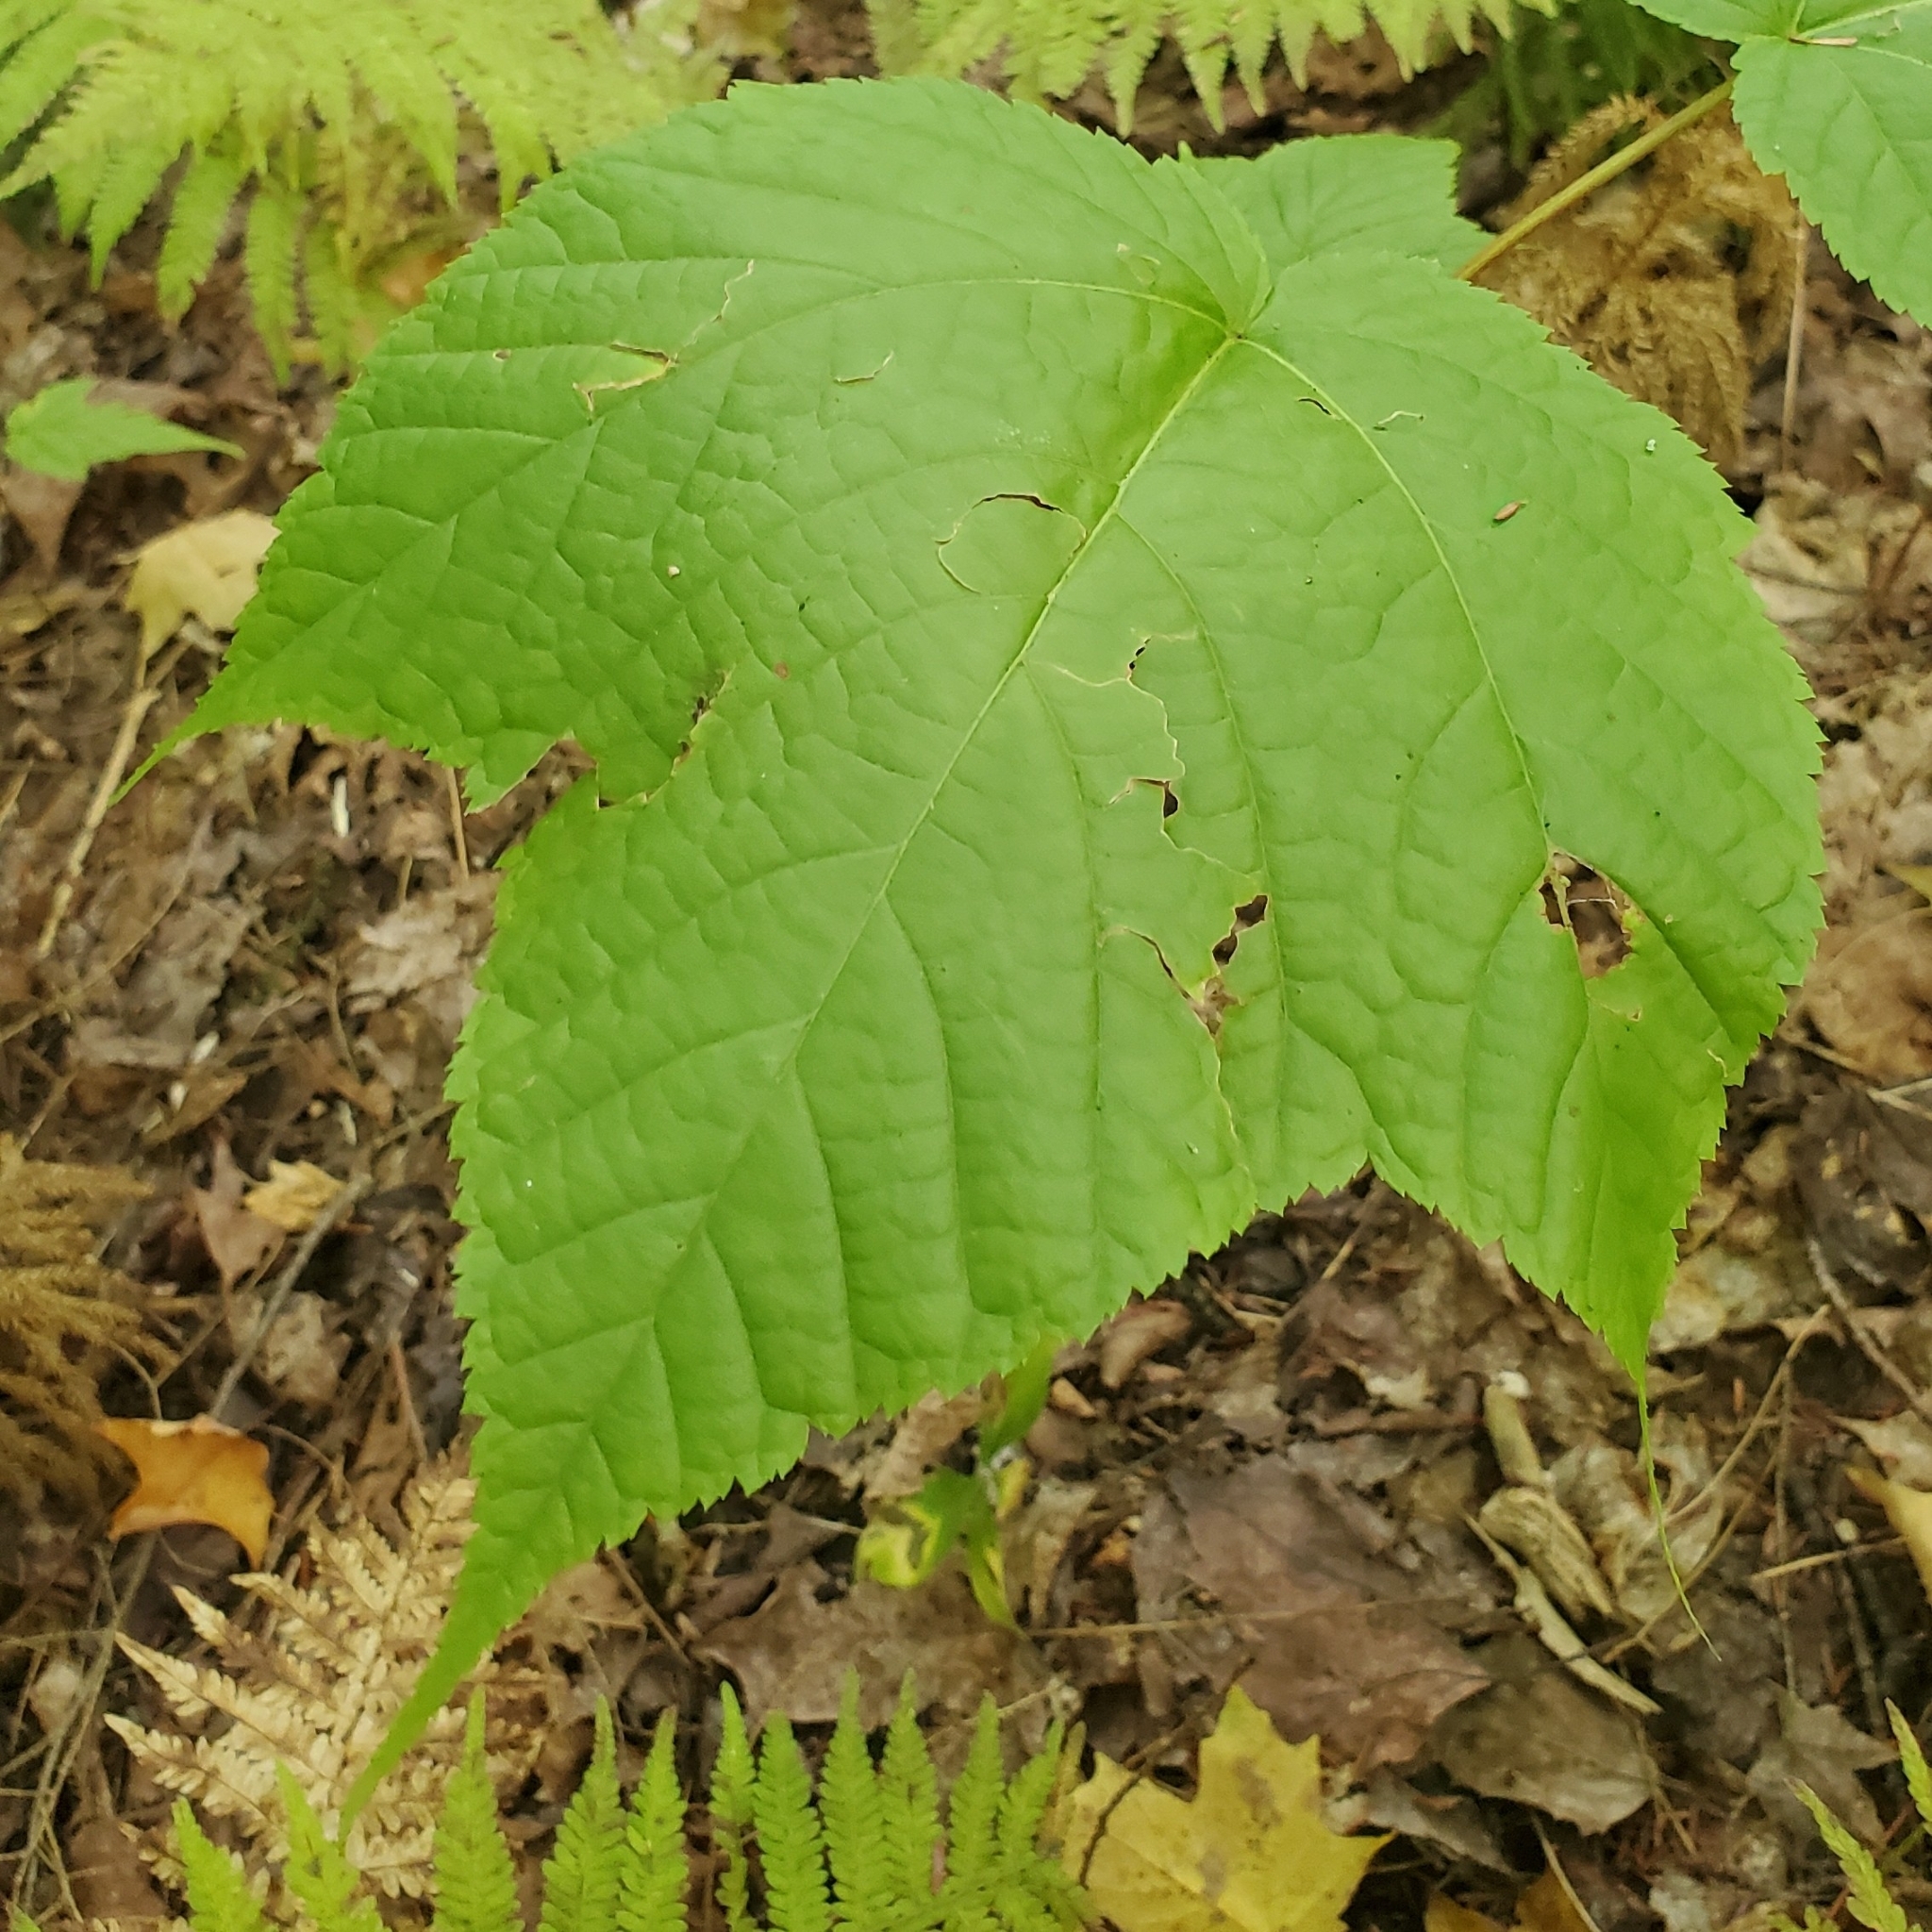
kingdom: Plantae
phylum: Tracheophyta
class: Magnoliopsida
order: Sapindales
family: Sapindaceae
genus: Acer
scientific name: Acer pensylvanicum
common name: Moosewood
